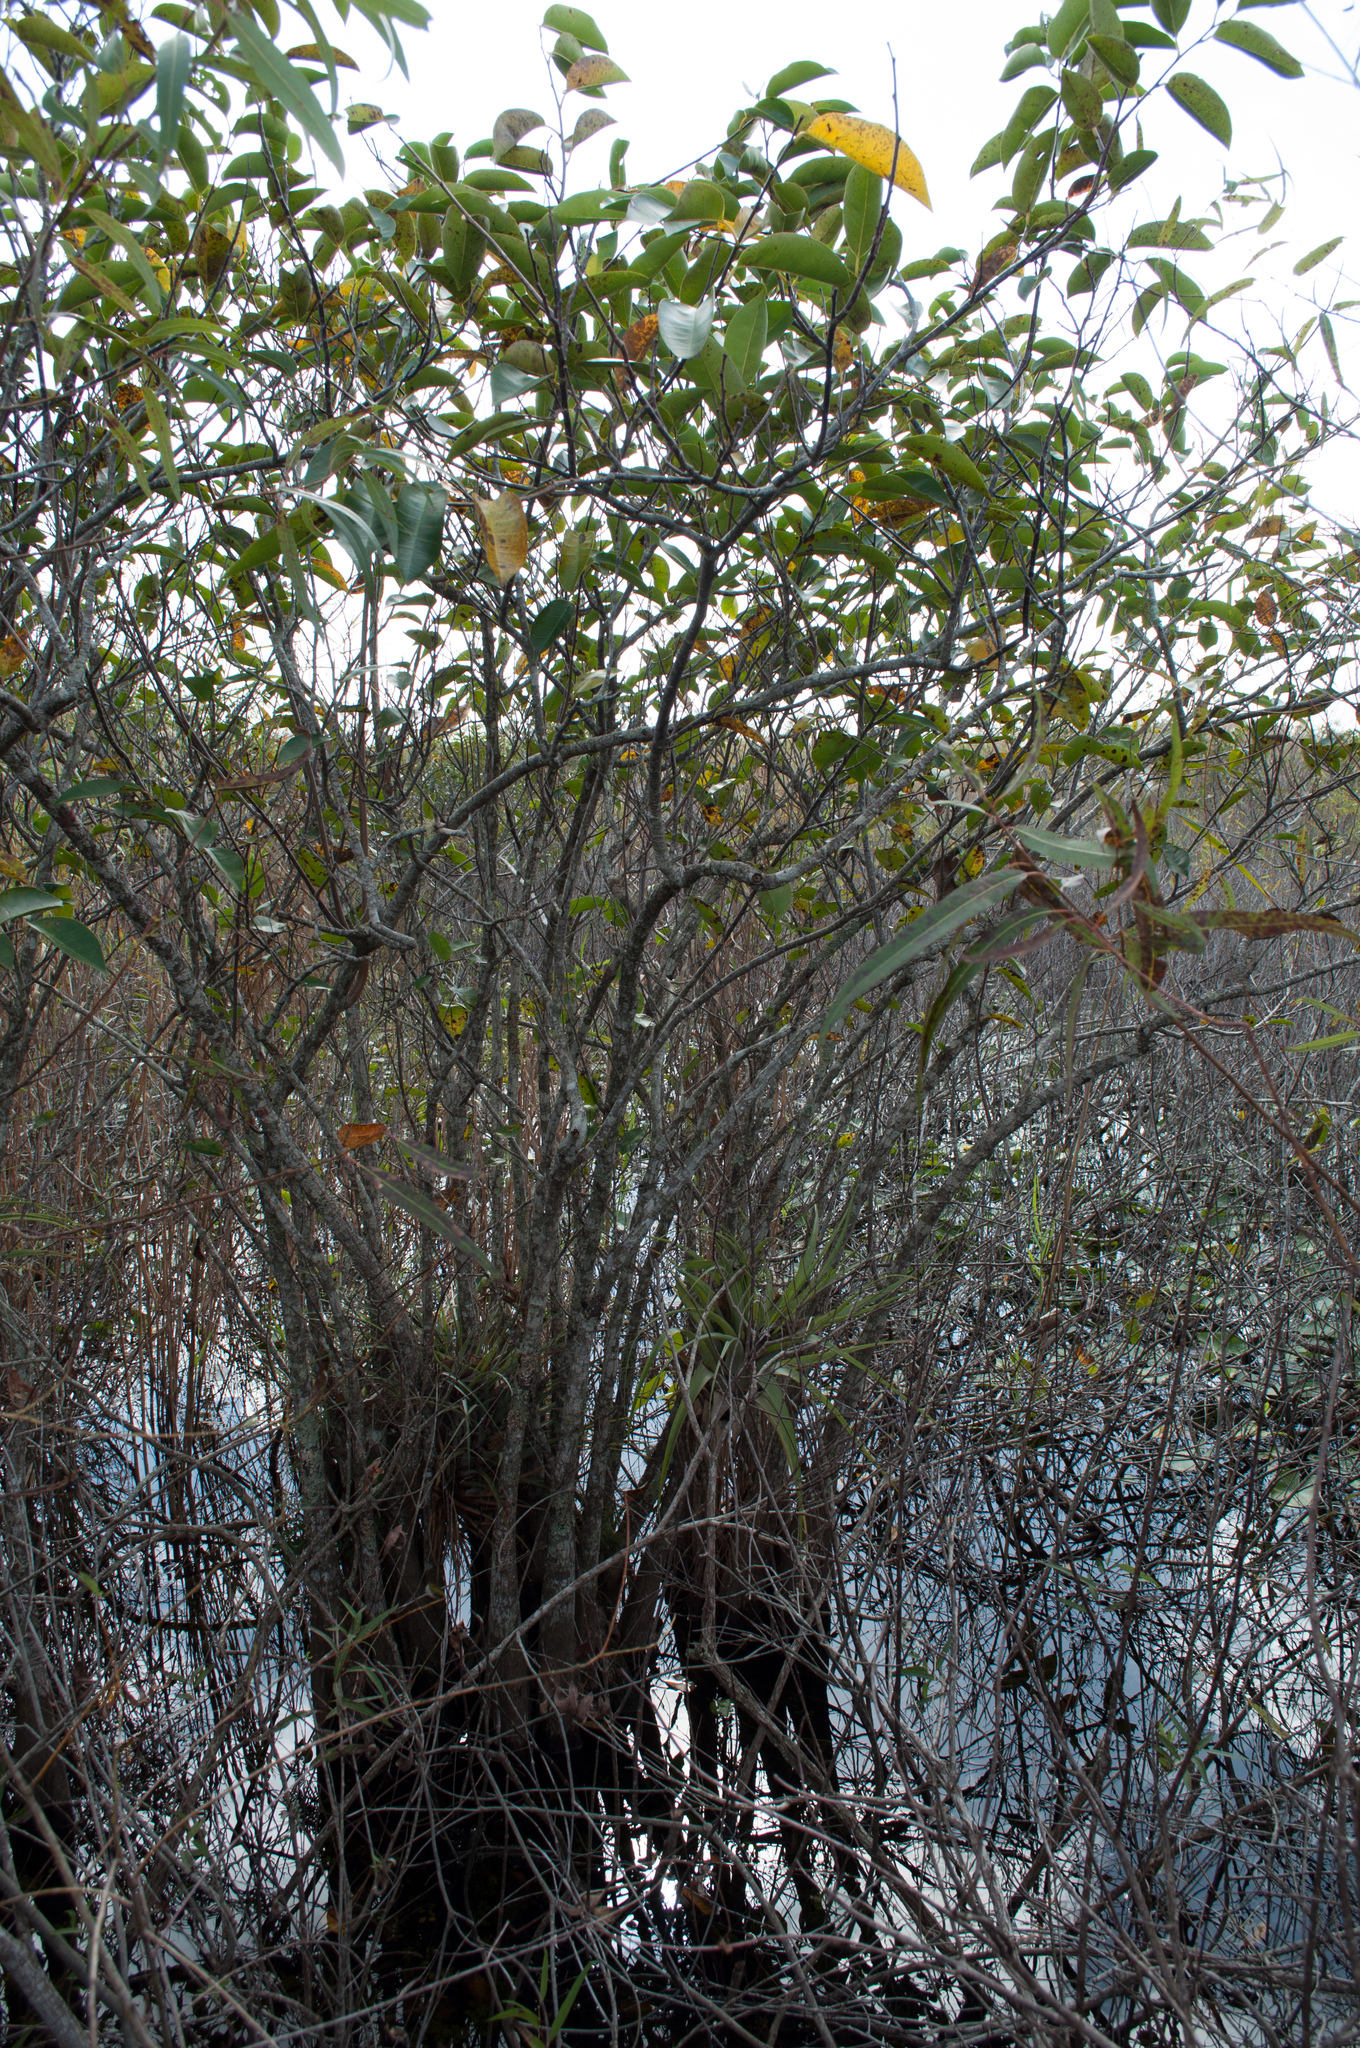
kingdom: Plantae
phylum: Tracheophyta
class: Liliopsida
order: Poales
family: Bromeliaceae
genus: Tillandsia
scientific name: Tillandsia utriculata
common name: Wild pine
